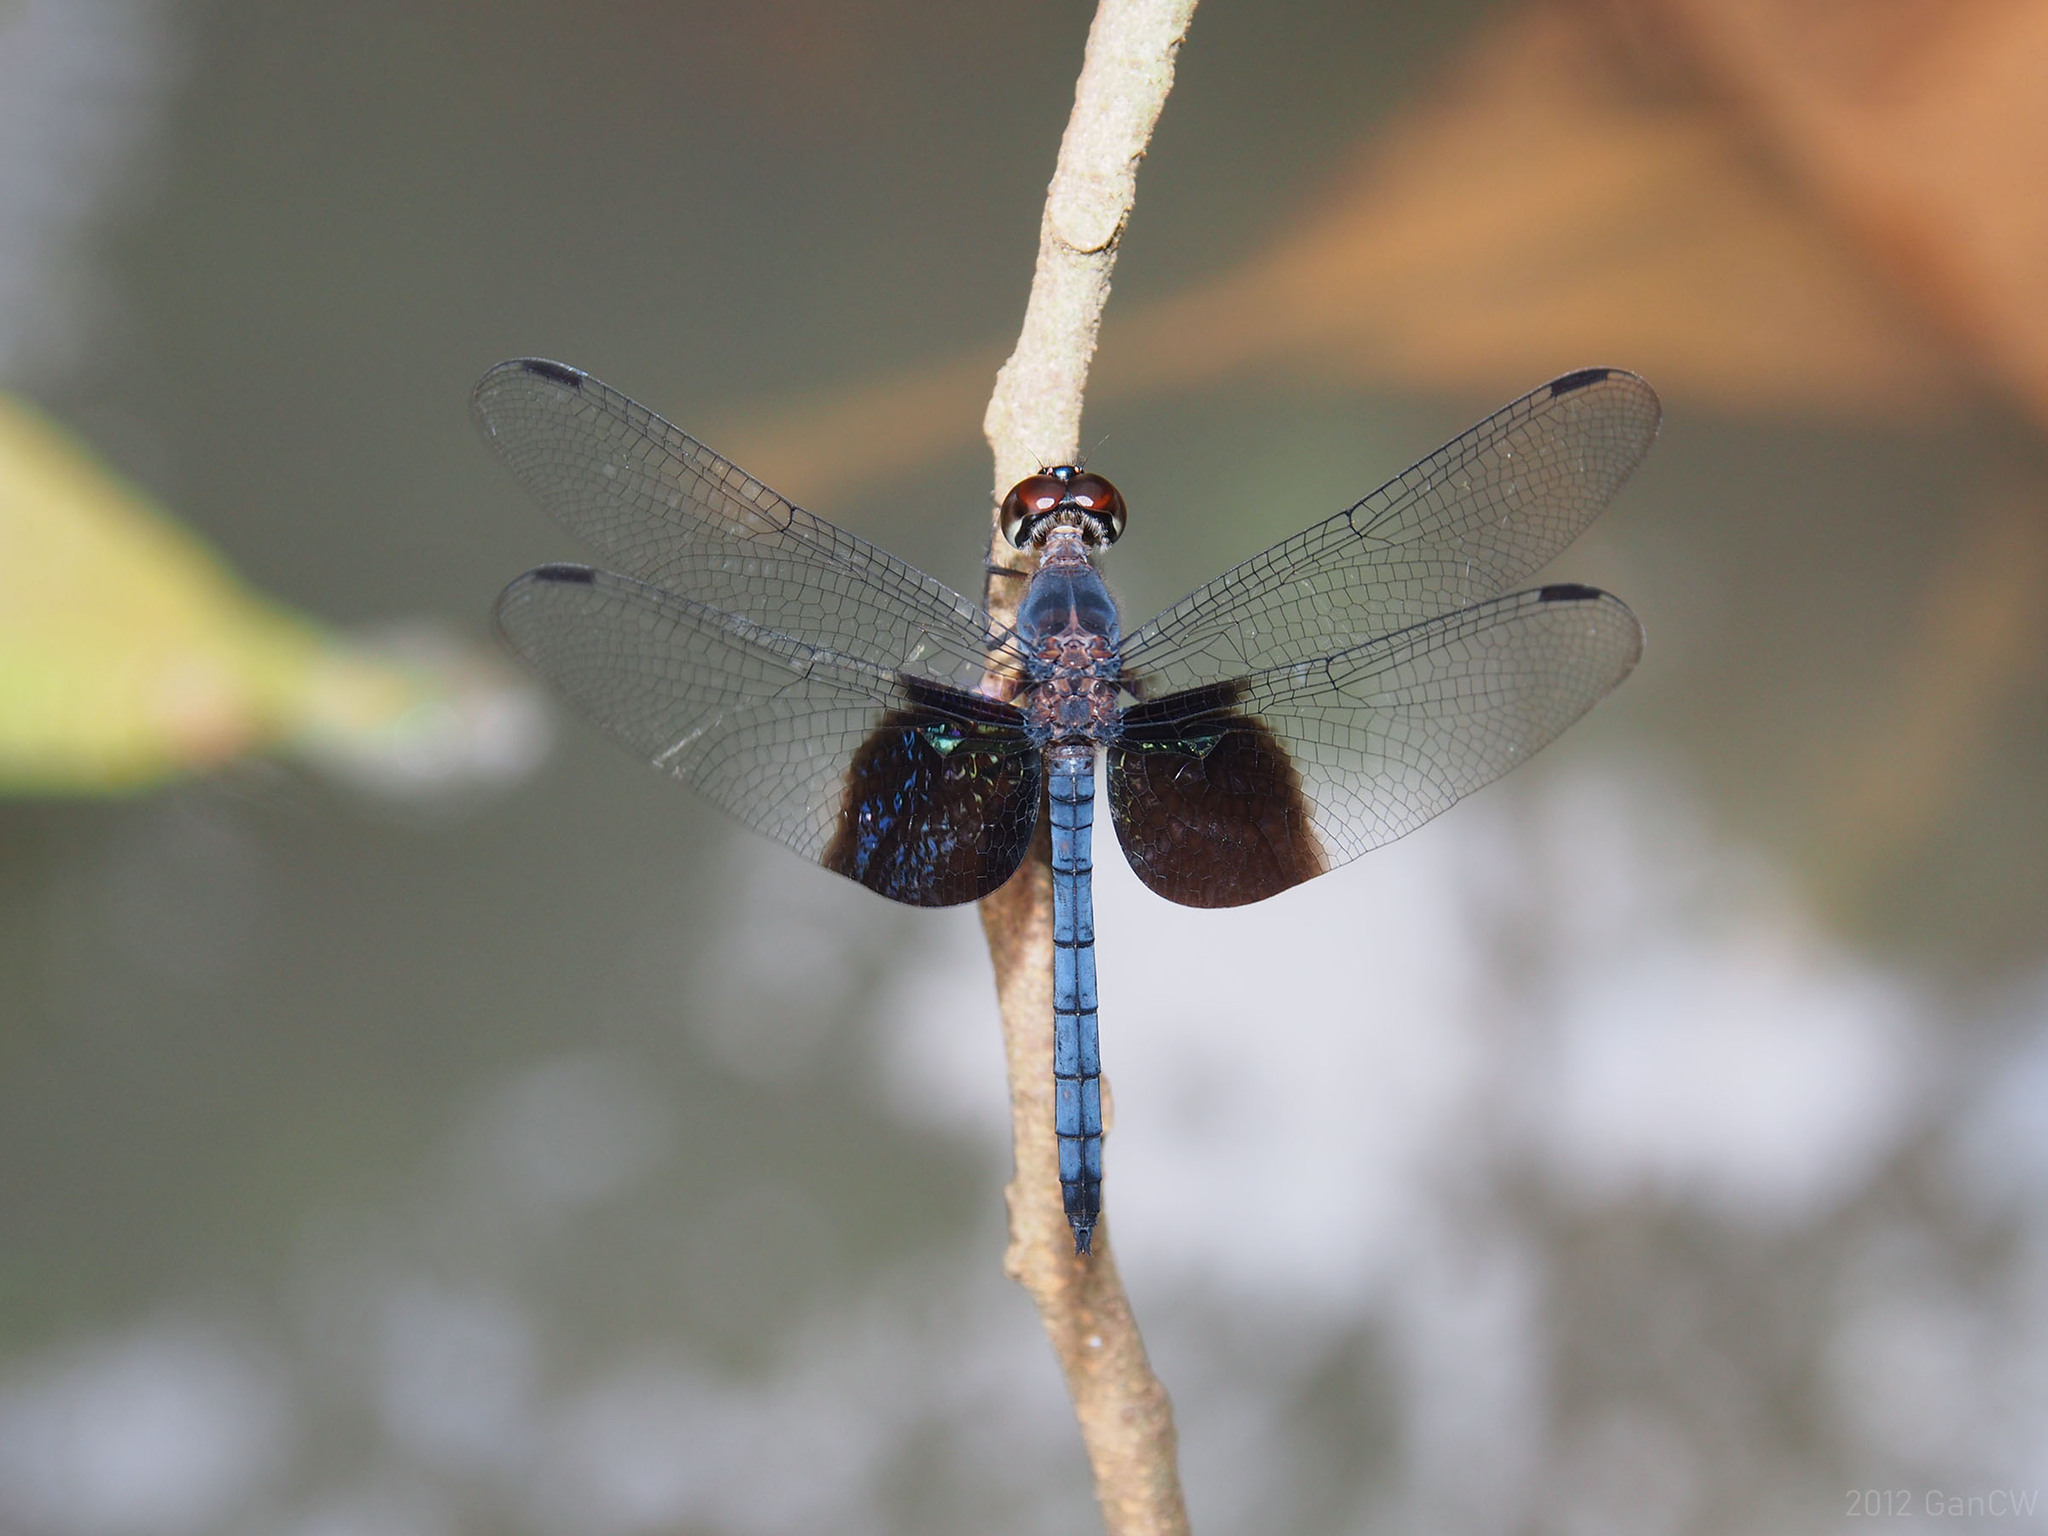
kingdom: Animalia
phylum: Arthropoda
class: Insecta
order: Odonata
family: Libellulidae
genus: Tyriobapta
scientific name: Tyriobapta torrida
